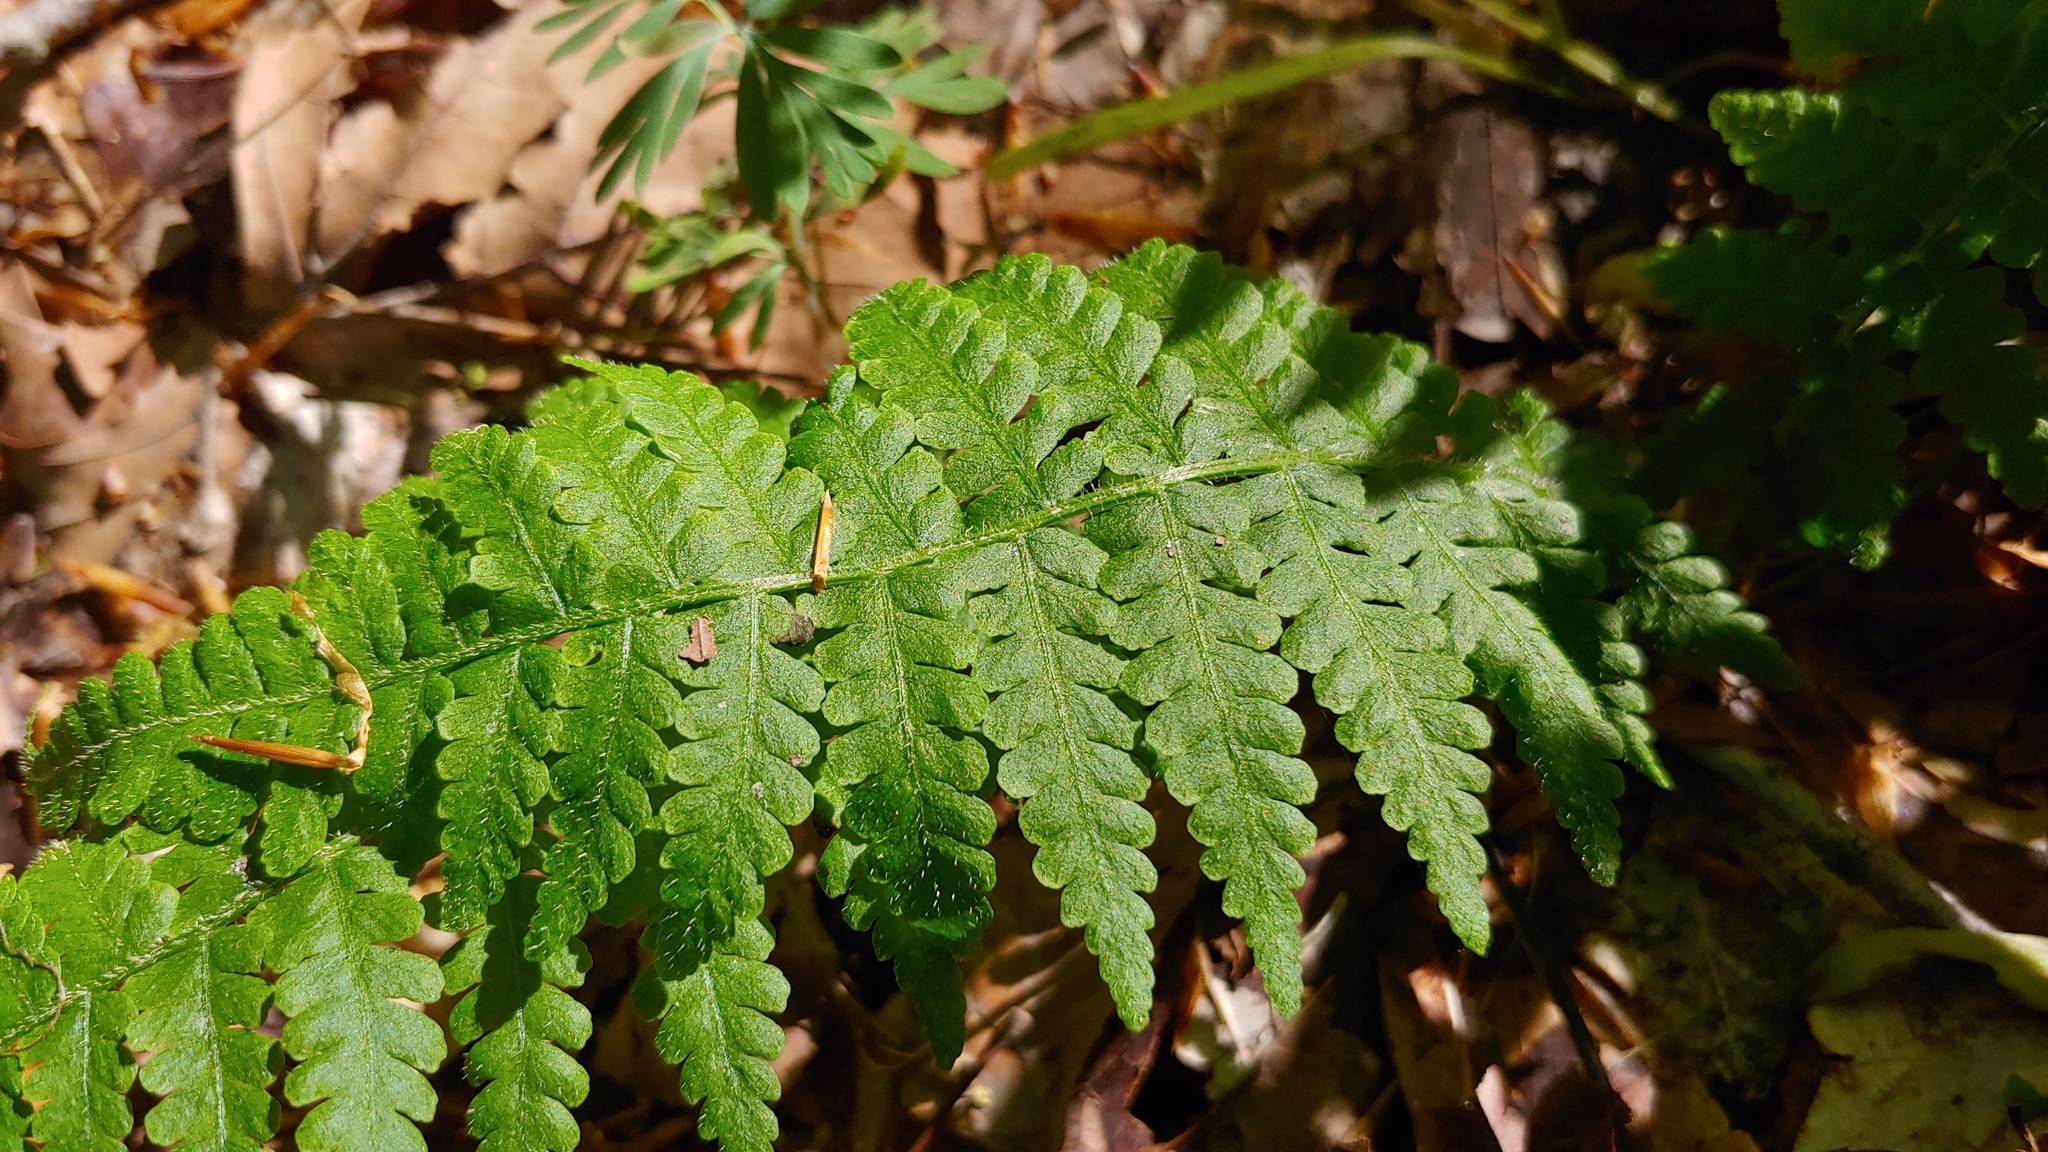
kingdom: Plantae
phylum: Tracheophyta
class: Polypodiopsida
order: Polypodiales
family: Athyriaceae
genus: Deparia
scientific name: Deparia acrostichoides
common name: Silver false spleenwort
